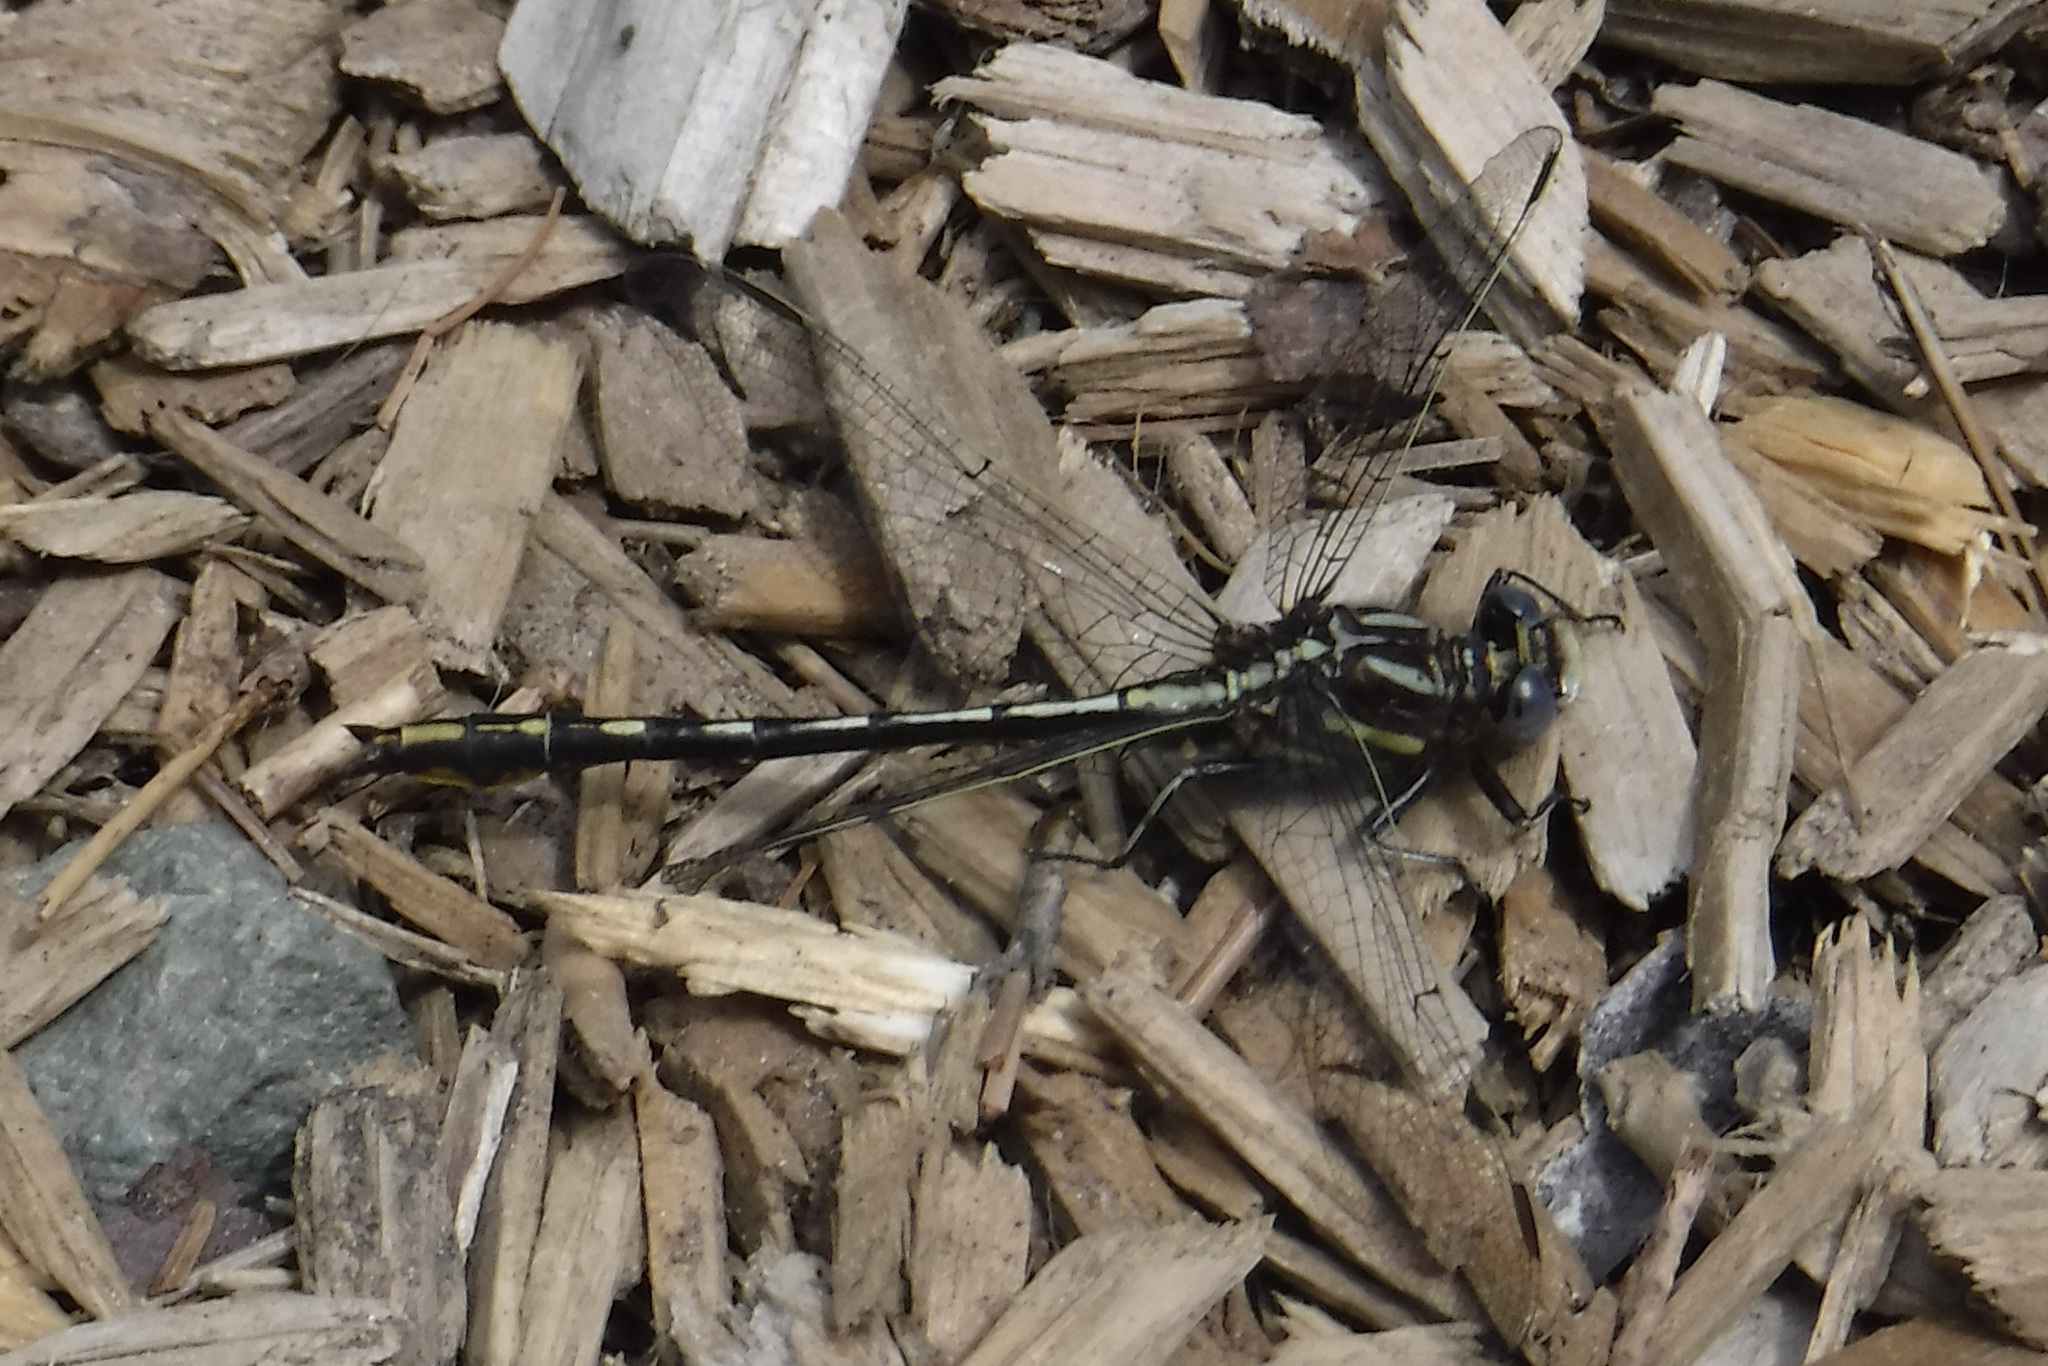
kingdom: Animalia
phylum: Arthropoda
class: Insecta
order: Odonata
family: Gomphidae
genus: Phanogomphus
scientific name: Phanogomphus exilis
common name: Lancet clubtail
